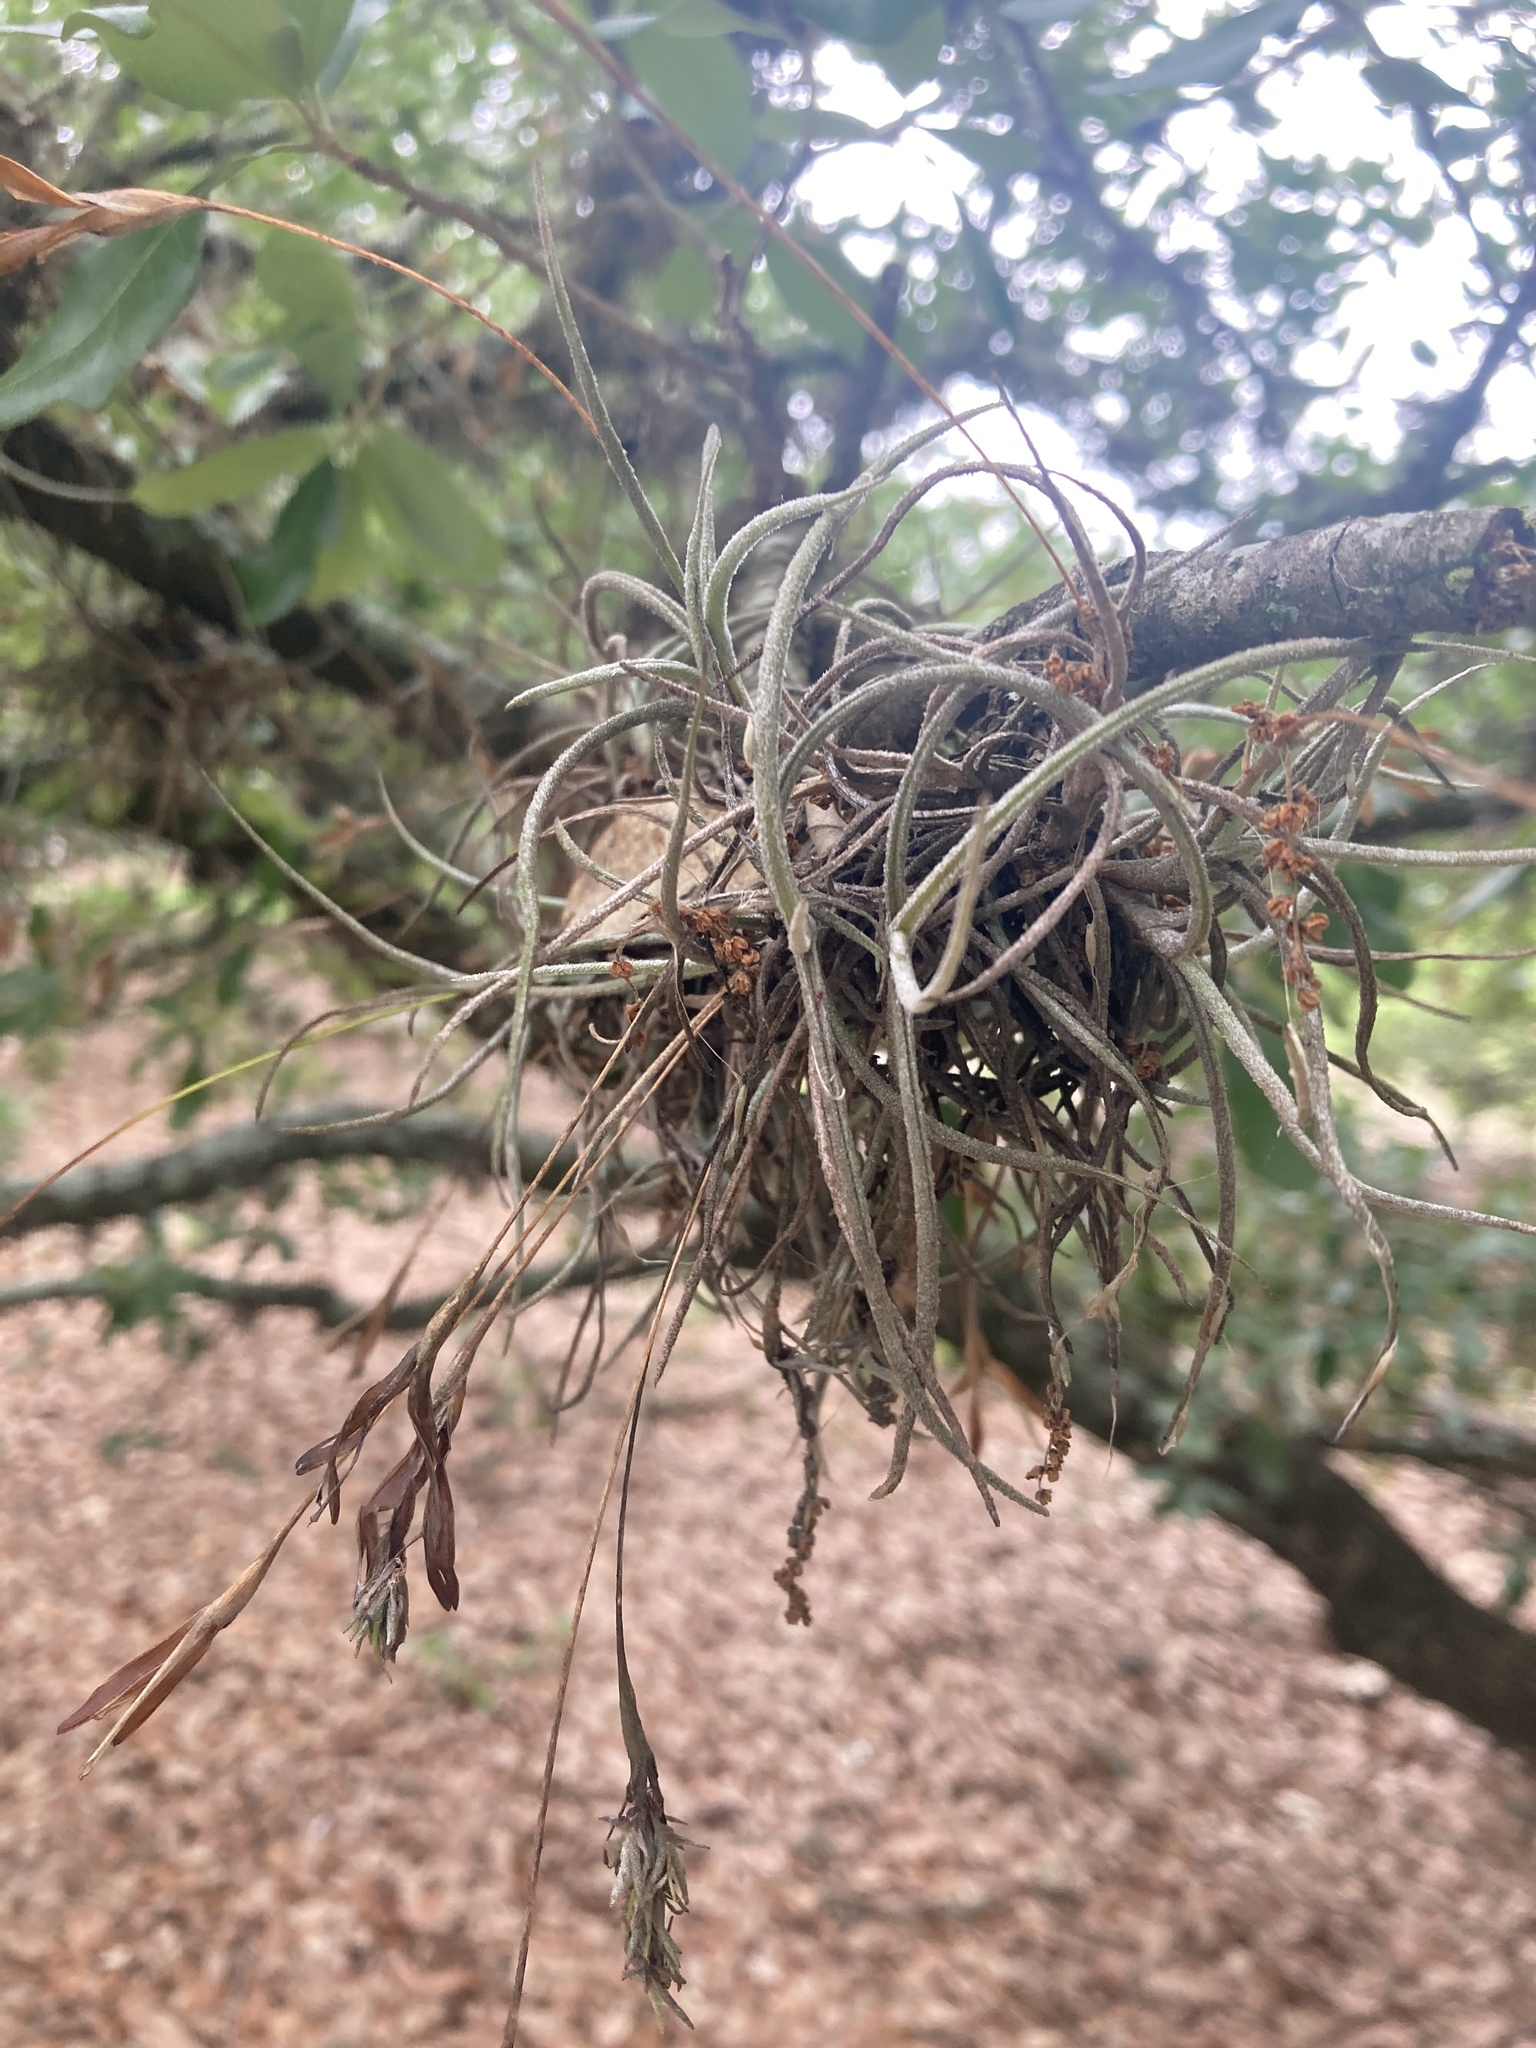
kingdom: Plantae
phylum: Tracheophyta
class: Liliopsida
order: Poales
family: Bromeliaceae
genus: Tillandsia
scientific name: Tillandsia recurvata
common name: Small ballmoss
